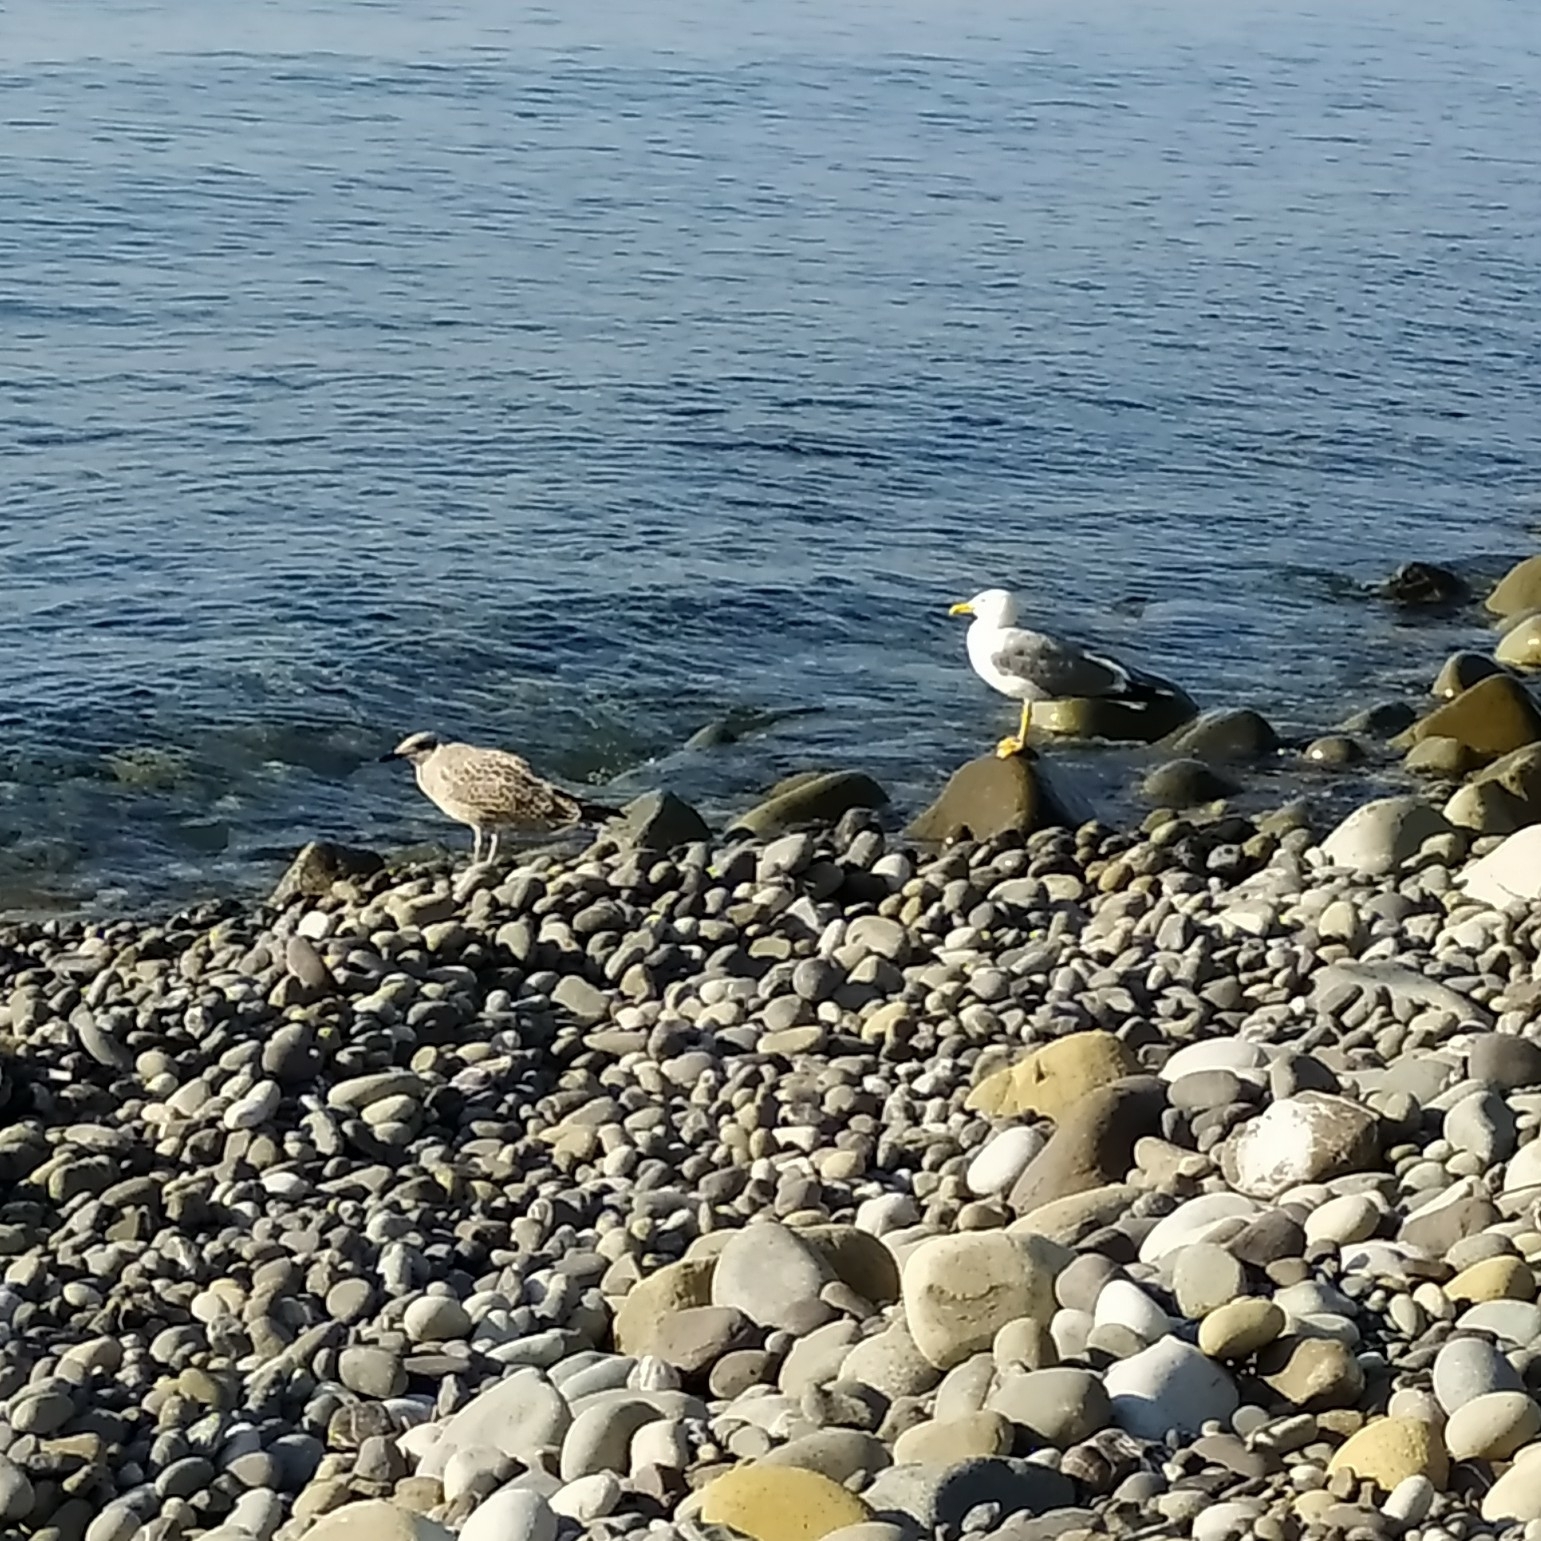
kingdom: Animalia
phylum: Chordata
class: Aves
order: Charadriiformes
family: Laridae
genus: Larus
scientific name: Larus michahellis
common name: Yellow-legged gull
